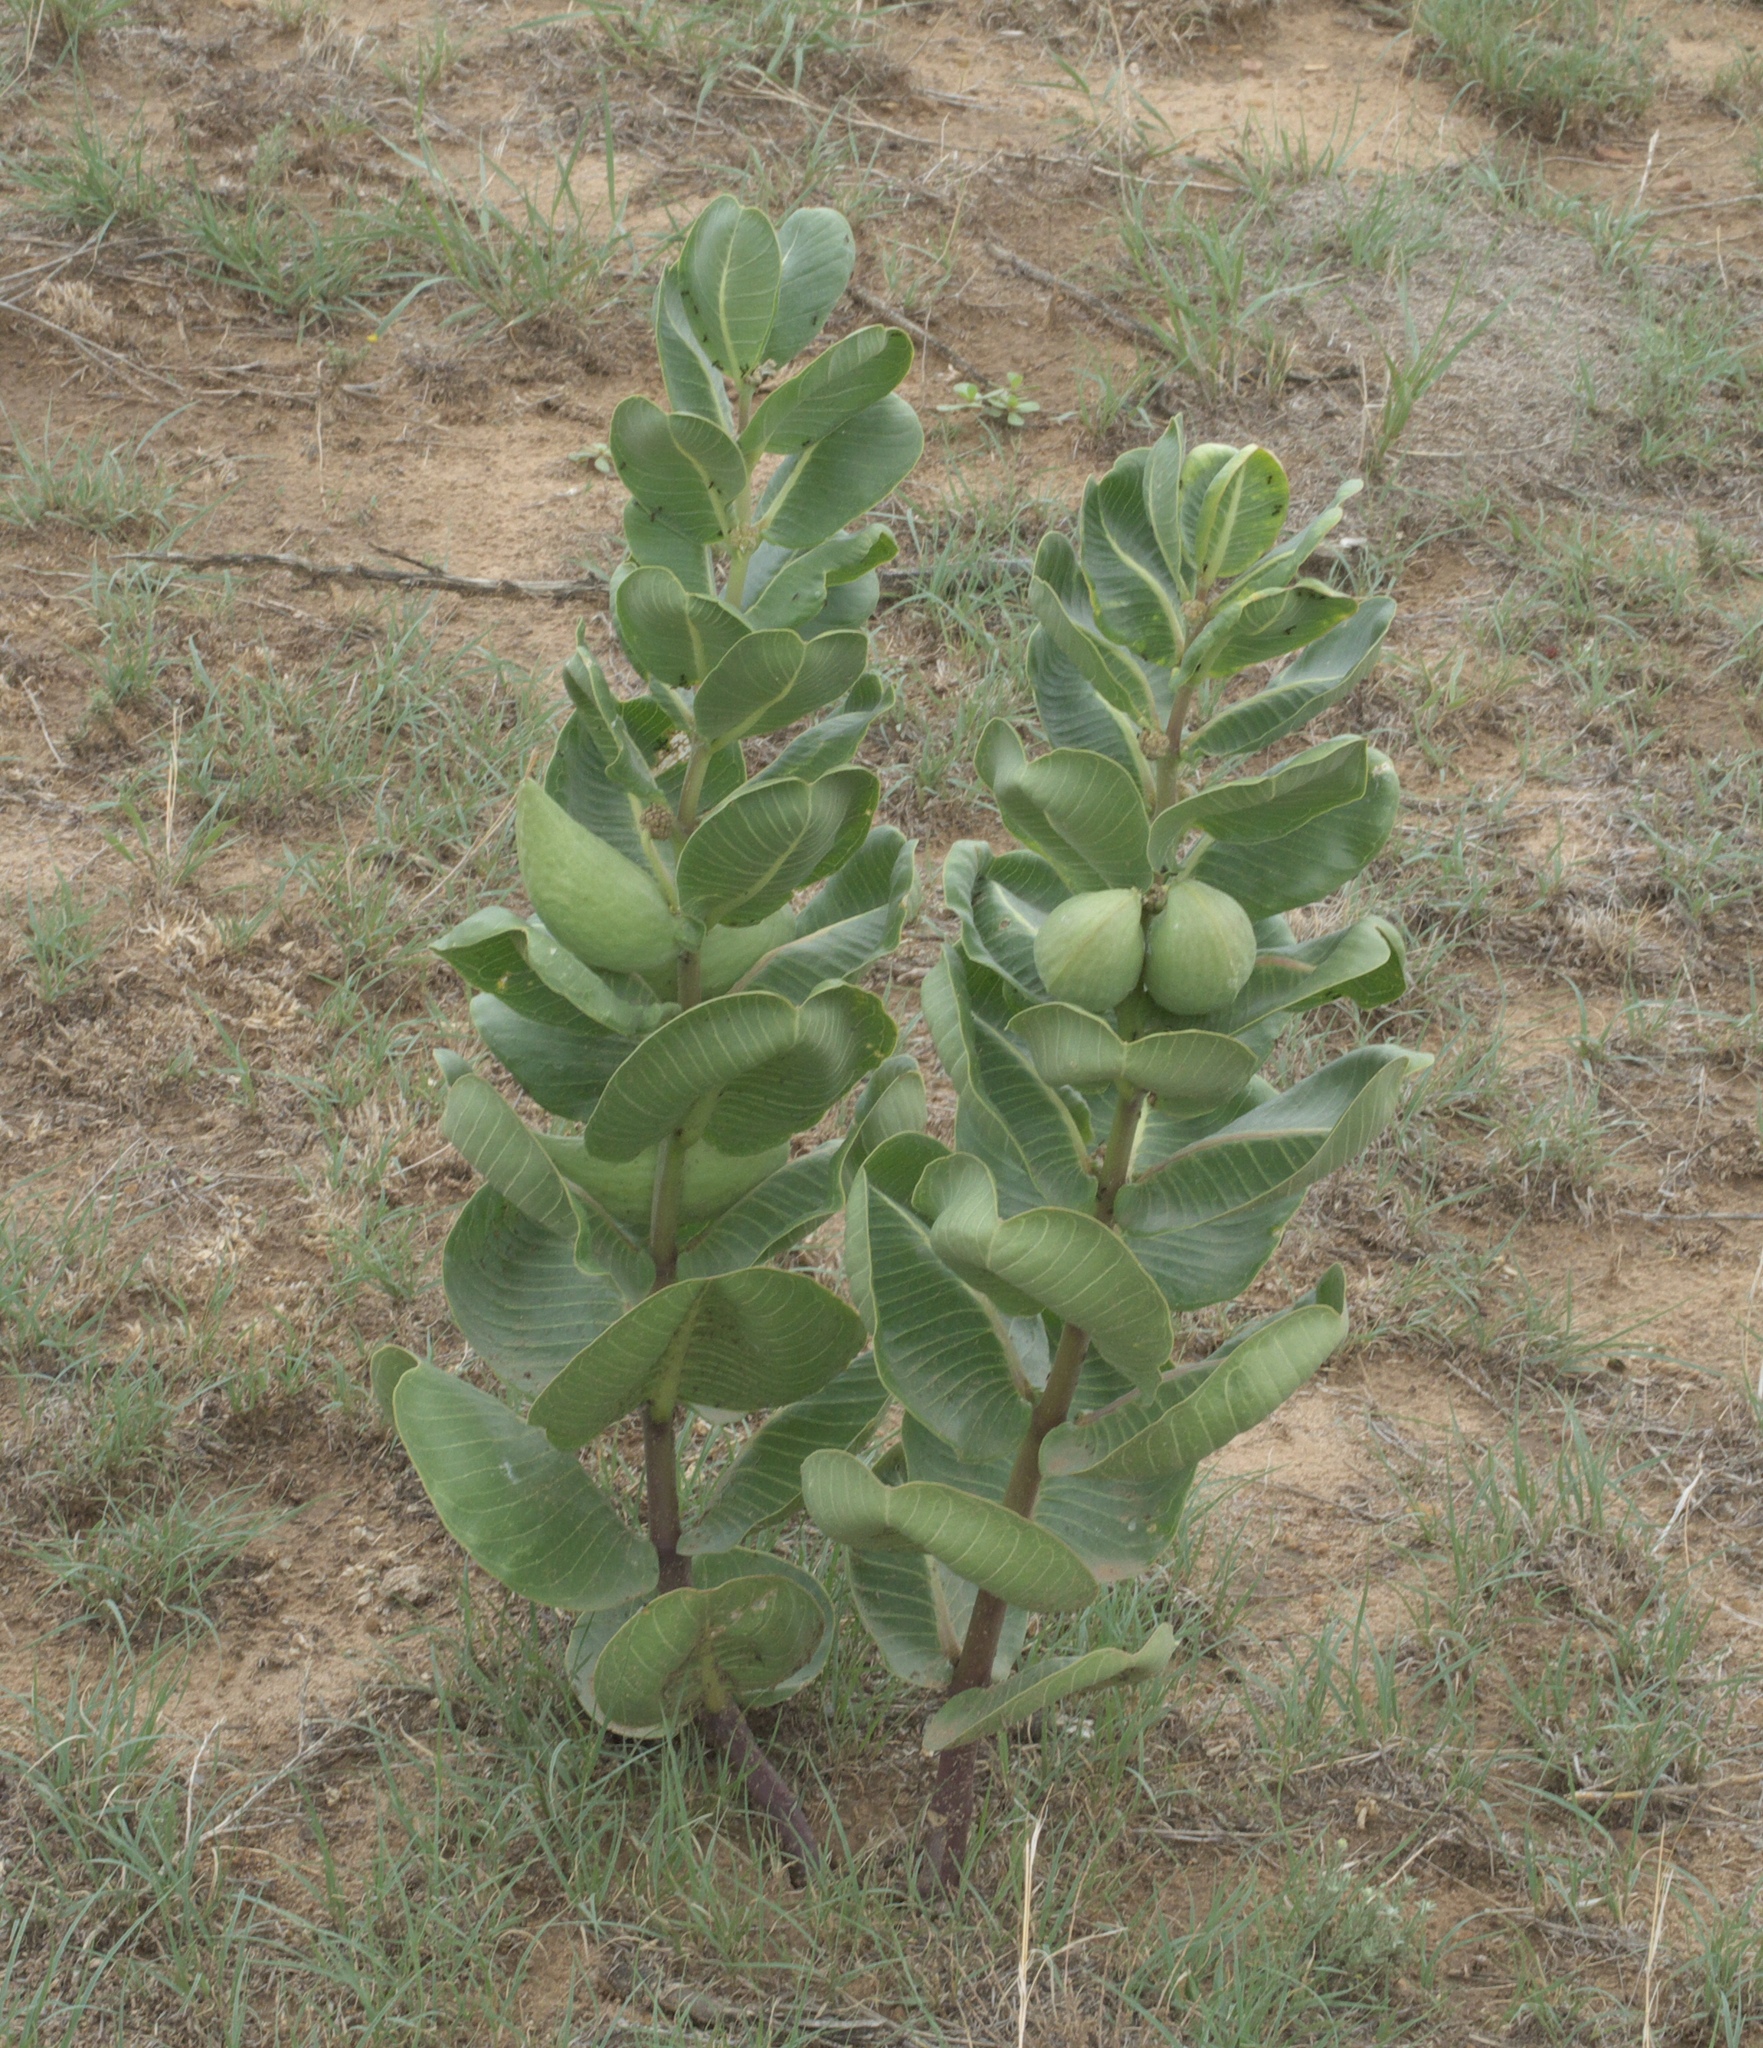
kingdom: Plantae
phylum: Tracheophyta
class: Magnoliopsida
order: Gentianales
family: Apocynaceae
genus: Asclepias
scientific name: Asclepias latifolia
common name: Broadleaf milkweed
